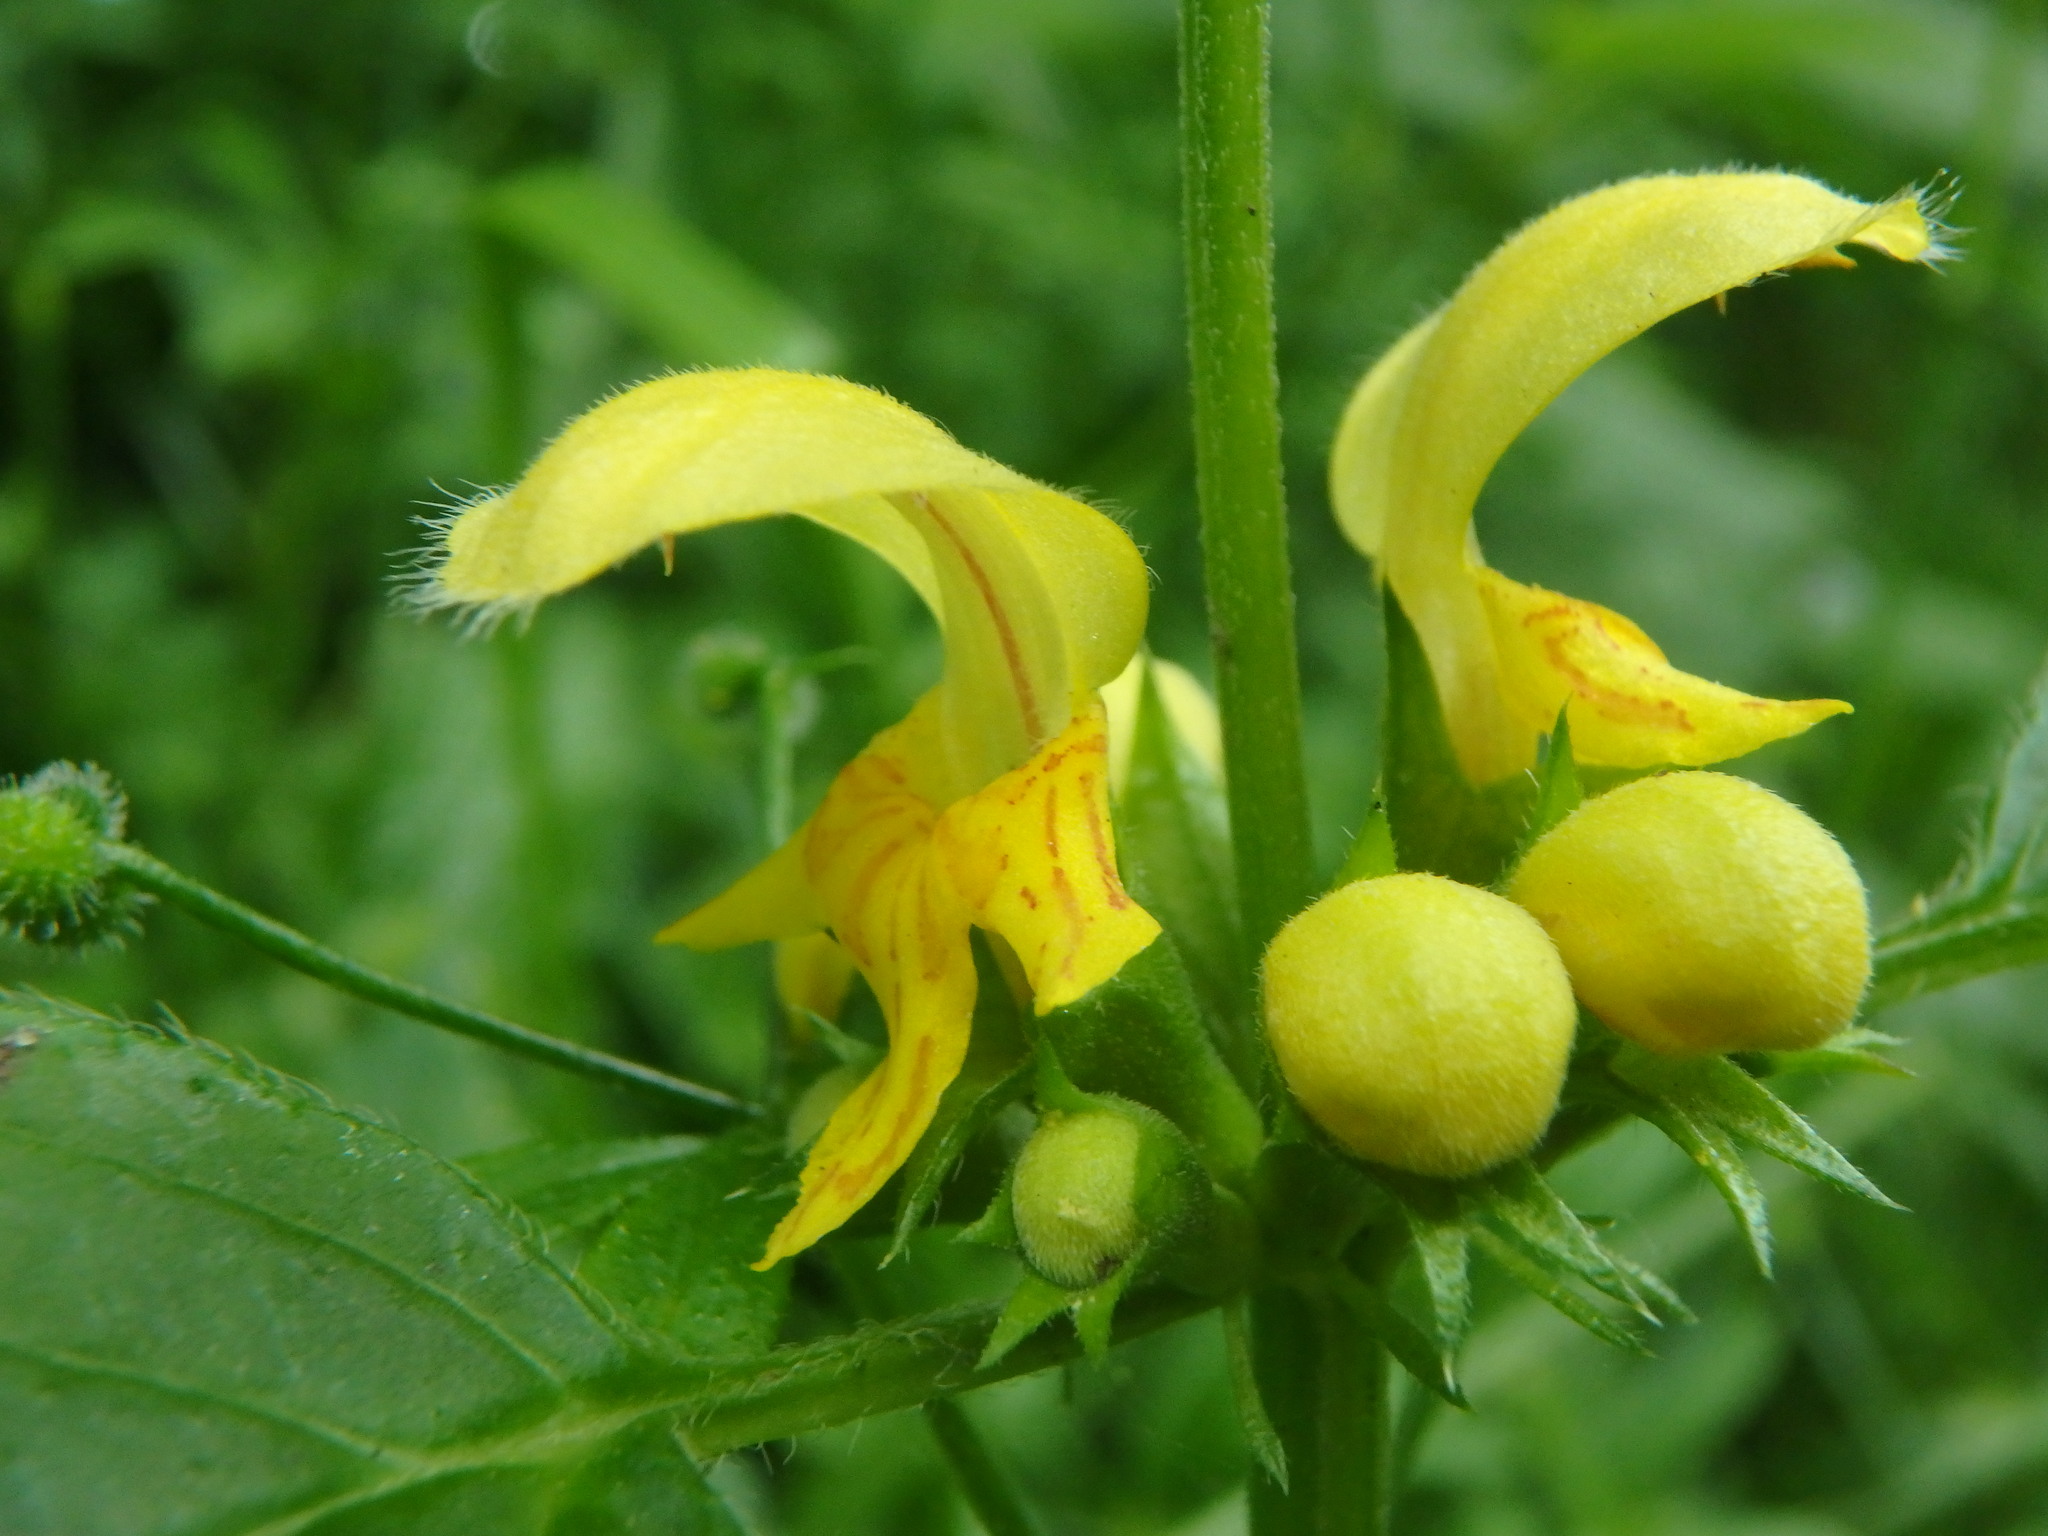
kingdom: Plantae
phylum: Tracheophyta
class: Magnoliopsida
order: Lamiales
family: Lamiaceae
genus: Lamium
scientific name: Lamium galeobdolon
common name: Yellow archangel
